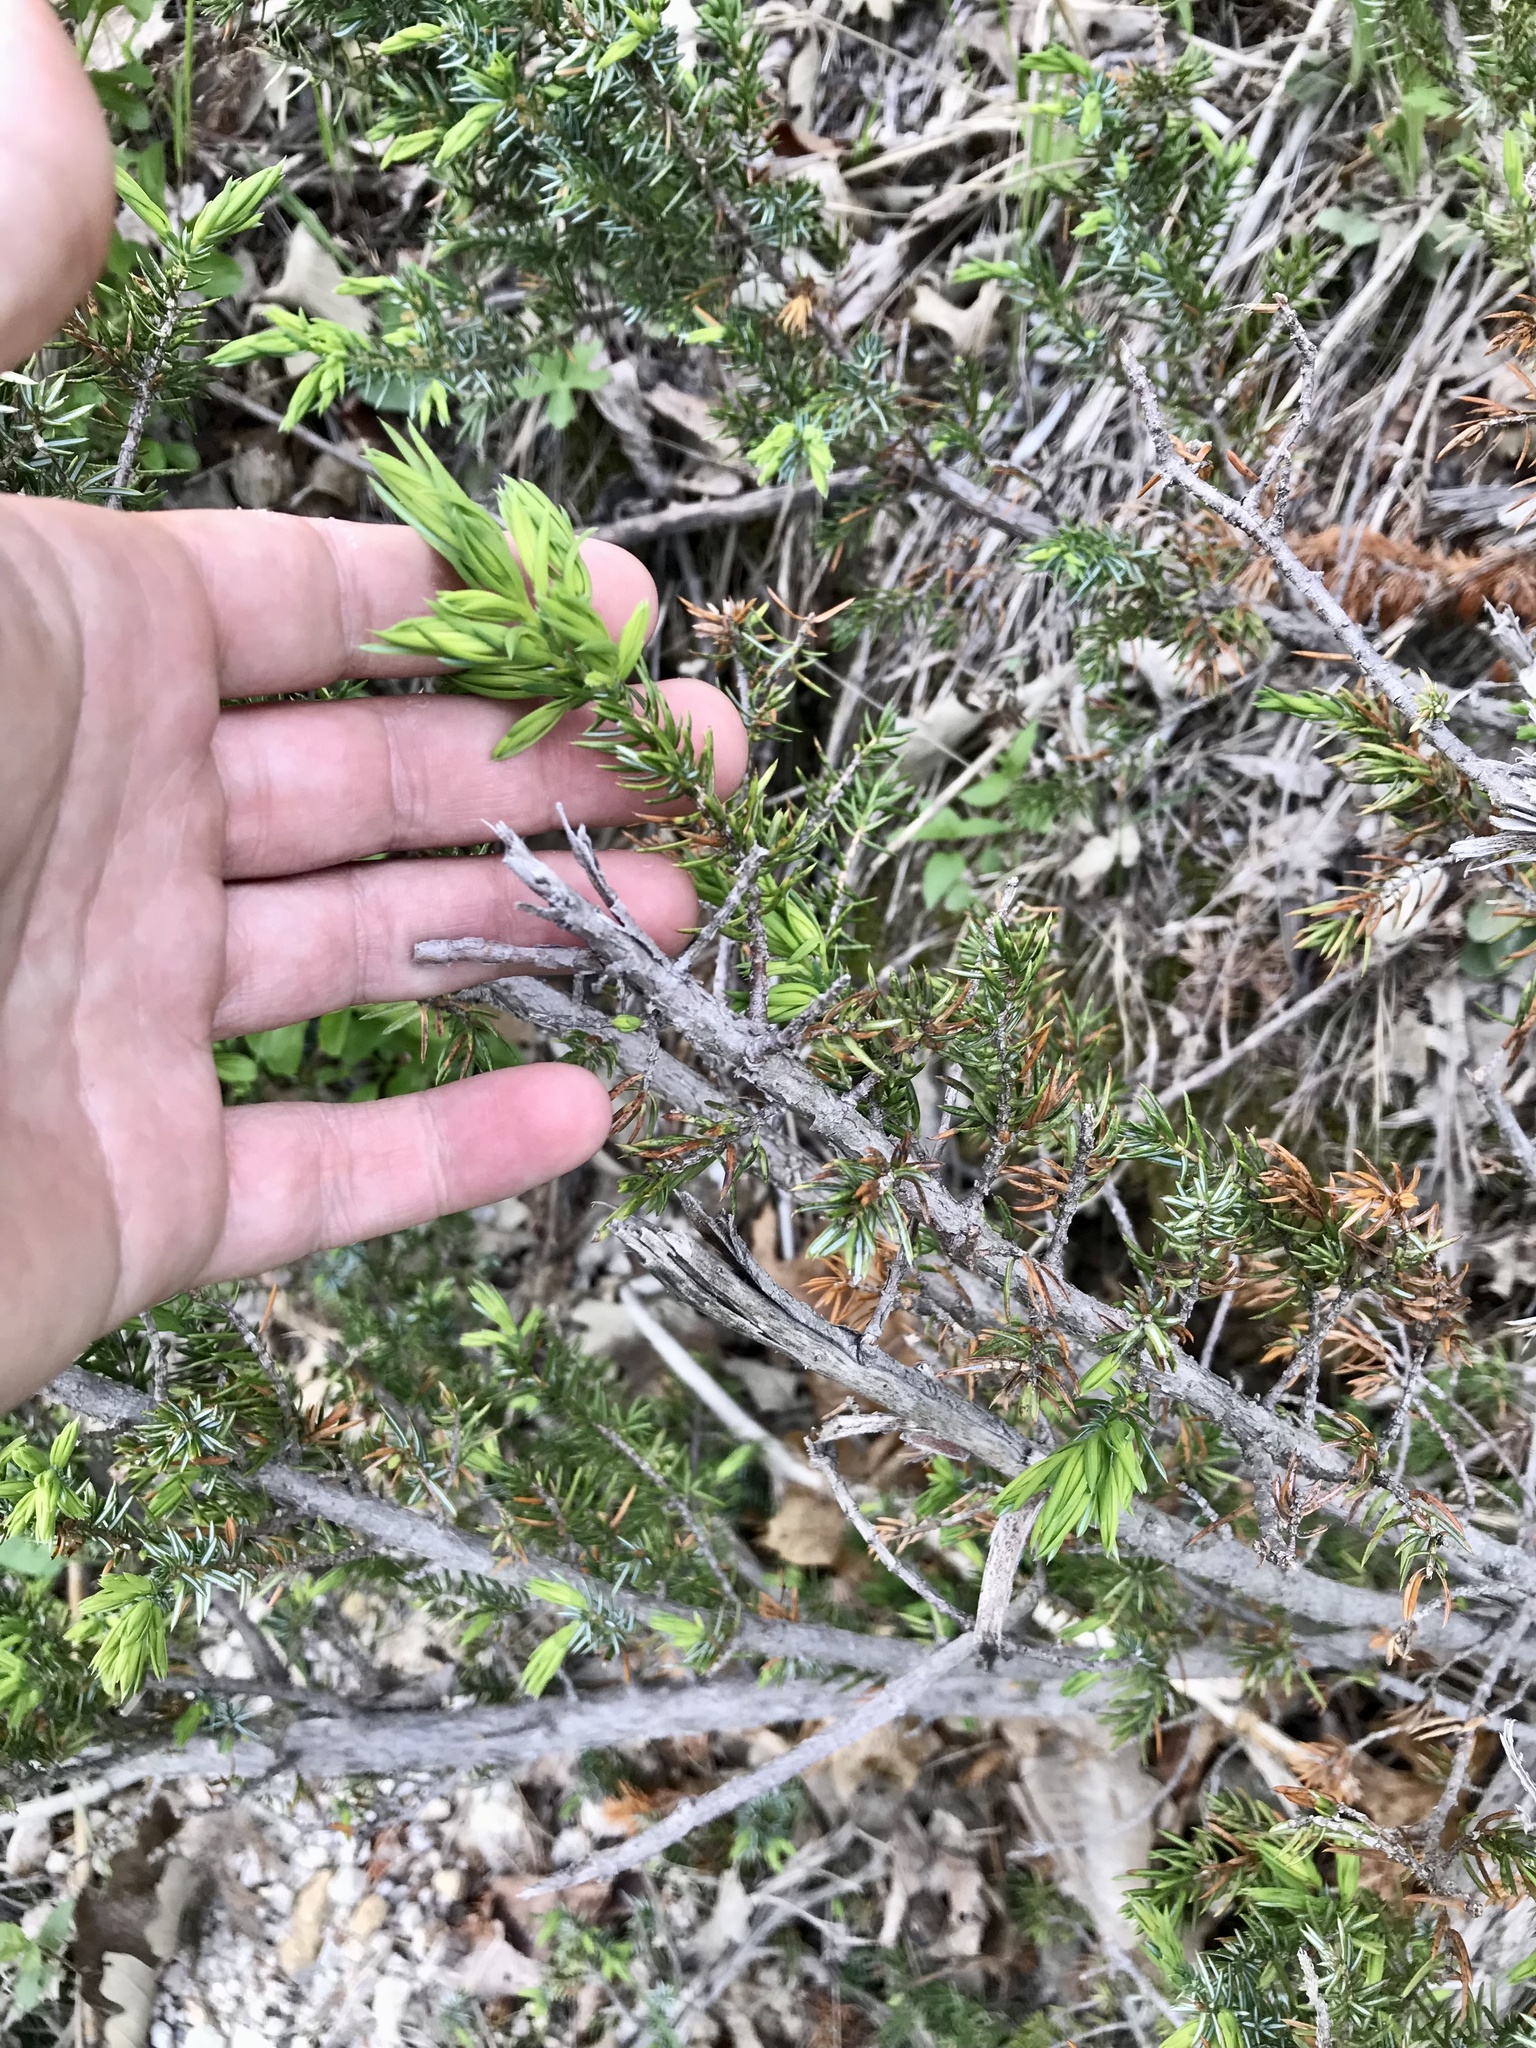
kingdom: Plantae
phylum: Tracheophyta
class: Pinopsida
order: Pinales
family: Cupressaceae
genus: Juniperus
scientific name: Juniperus communis
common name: Common juniper
